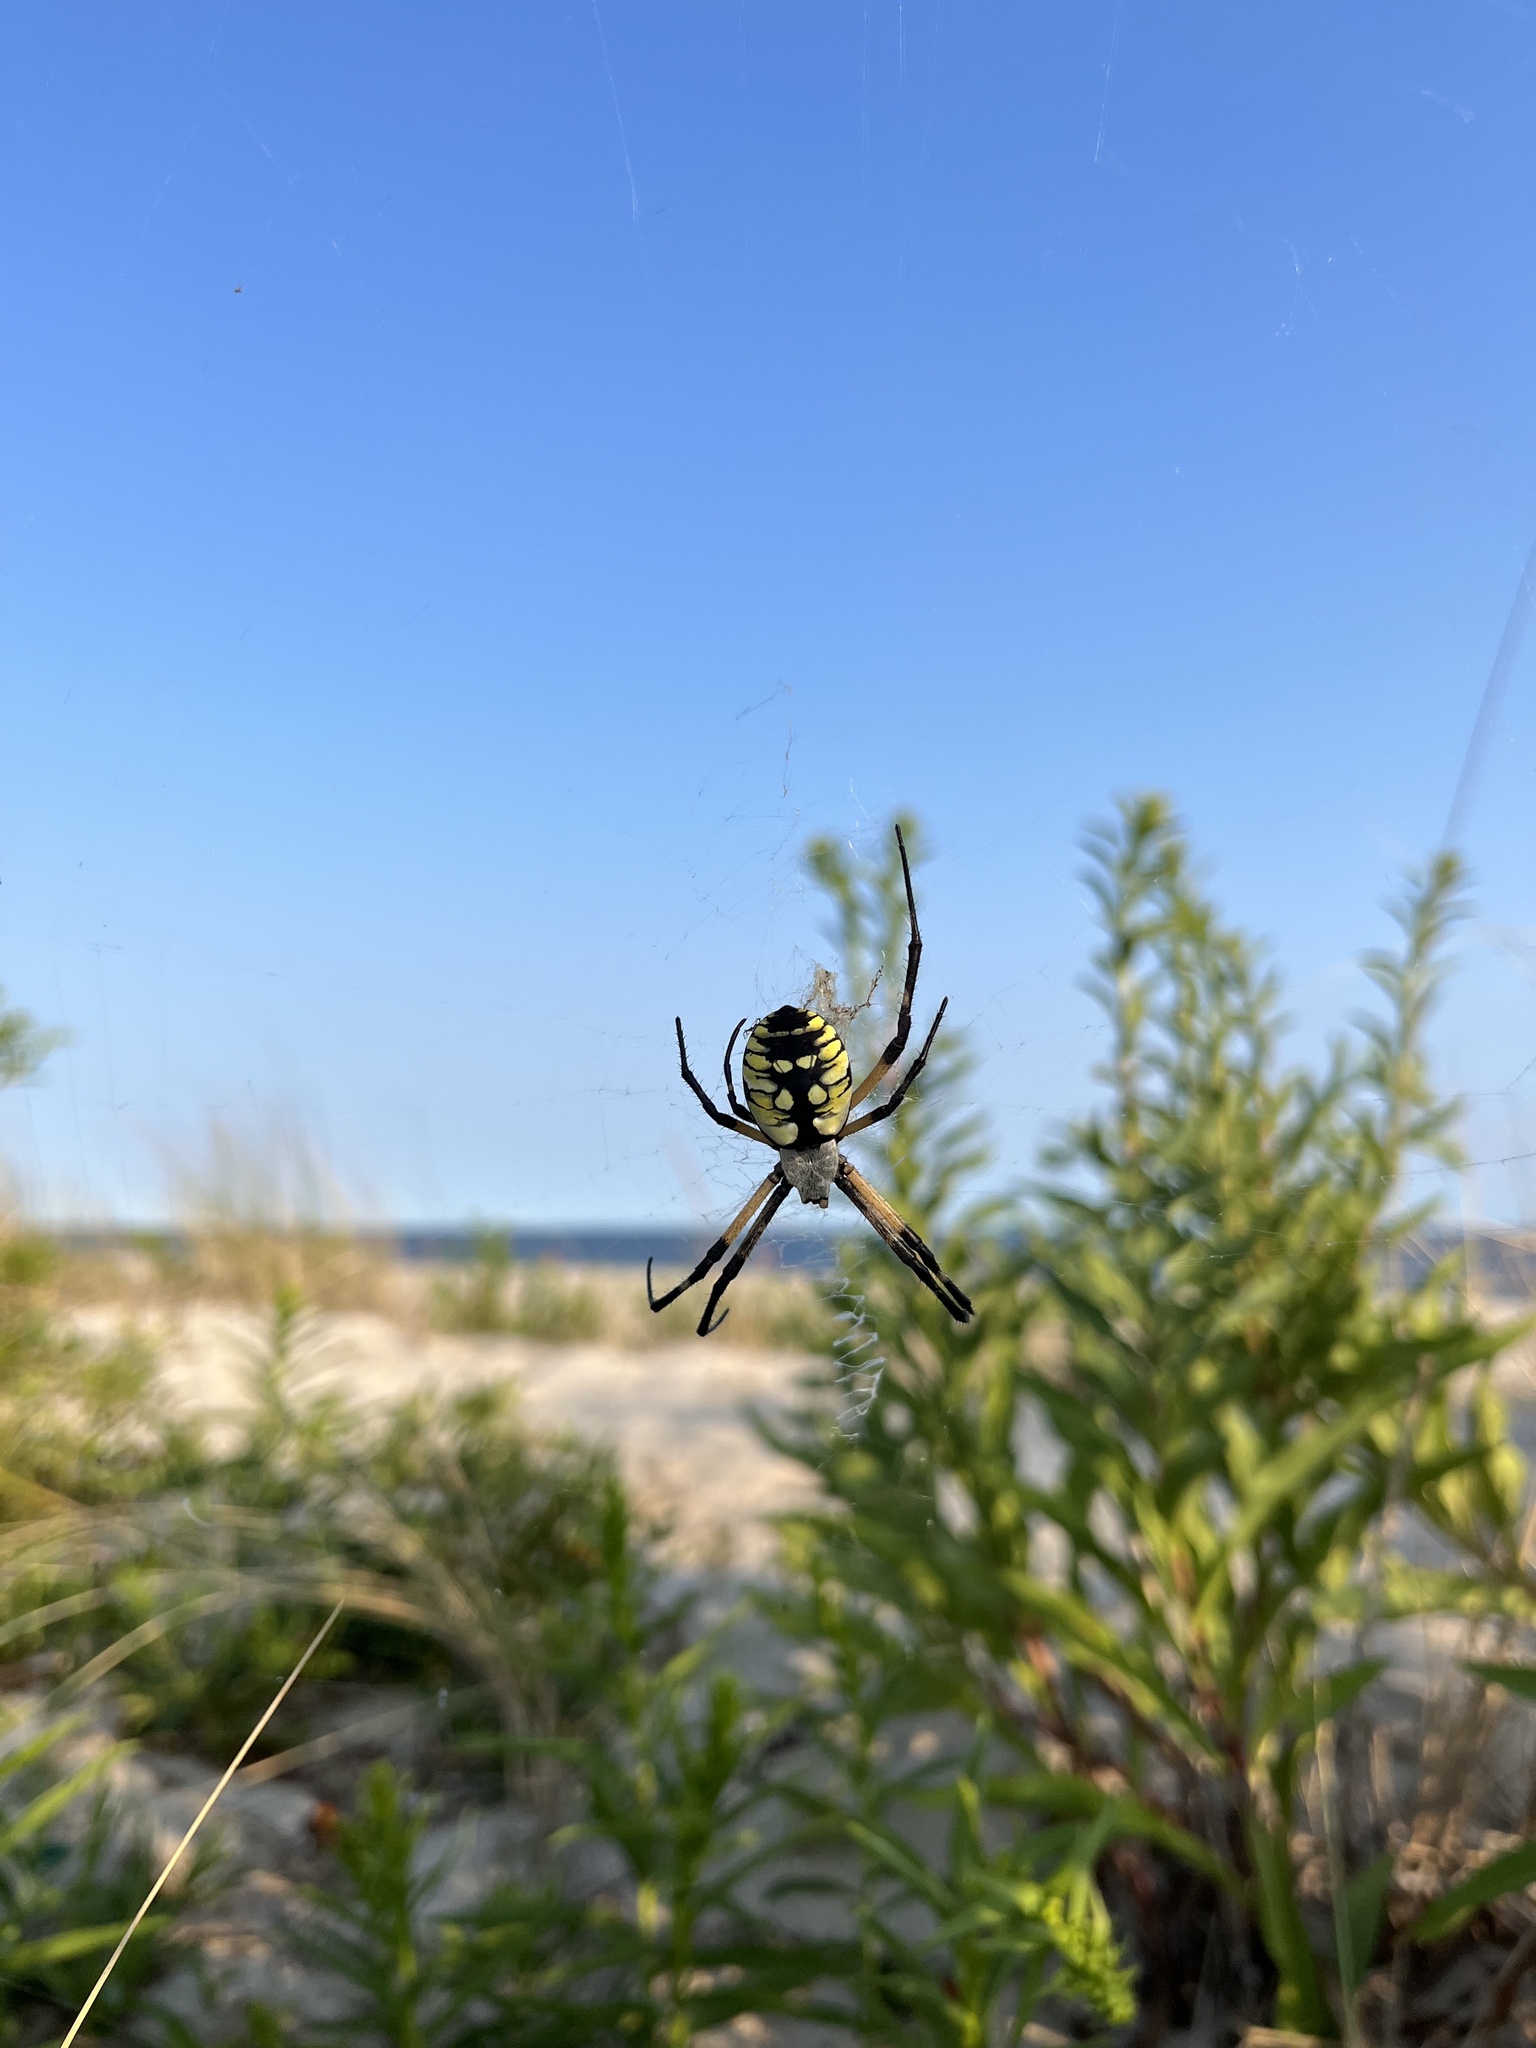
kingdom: Animalia
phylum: Arthropoda
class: Arachnida
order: Araneae
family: Araneidae
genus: Argiope
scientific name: Argiope aurantia
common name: Orb weavers
